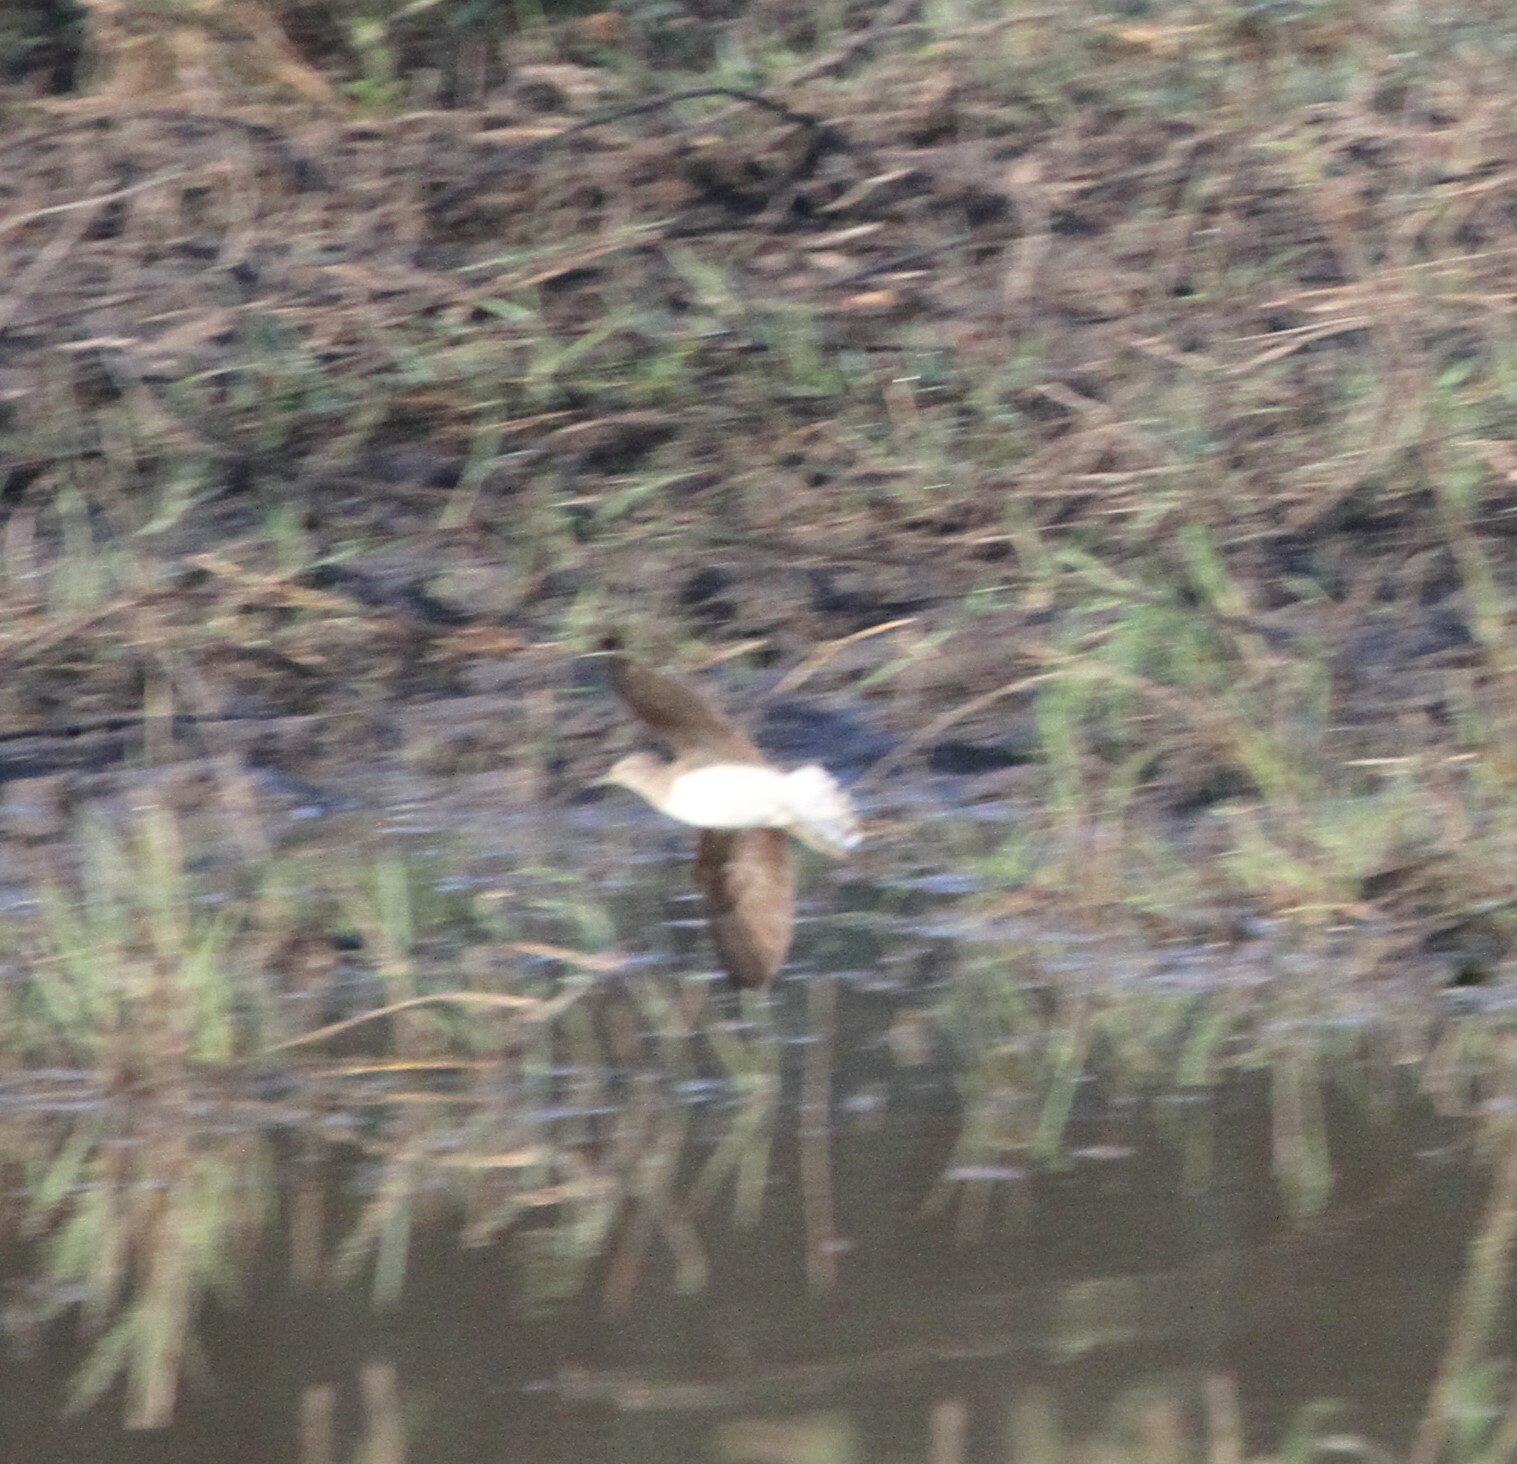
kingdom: Animalia
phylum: Chordata
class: Aves
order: Charadriiformes
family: Scolopacidae
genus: Tringa
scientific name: Tringa ochropus
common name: Green sandpiper
